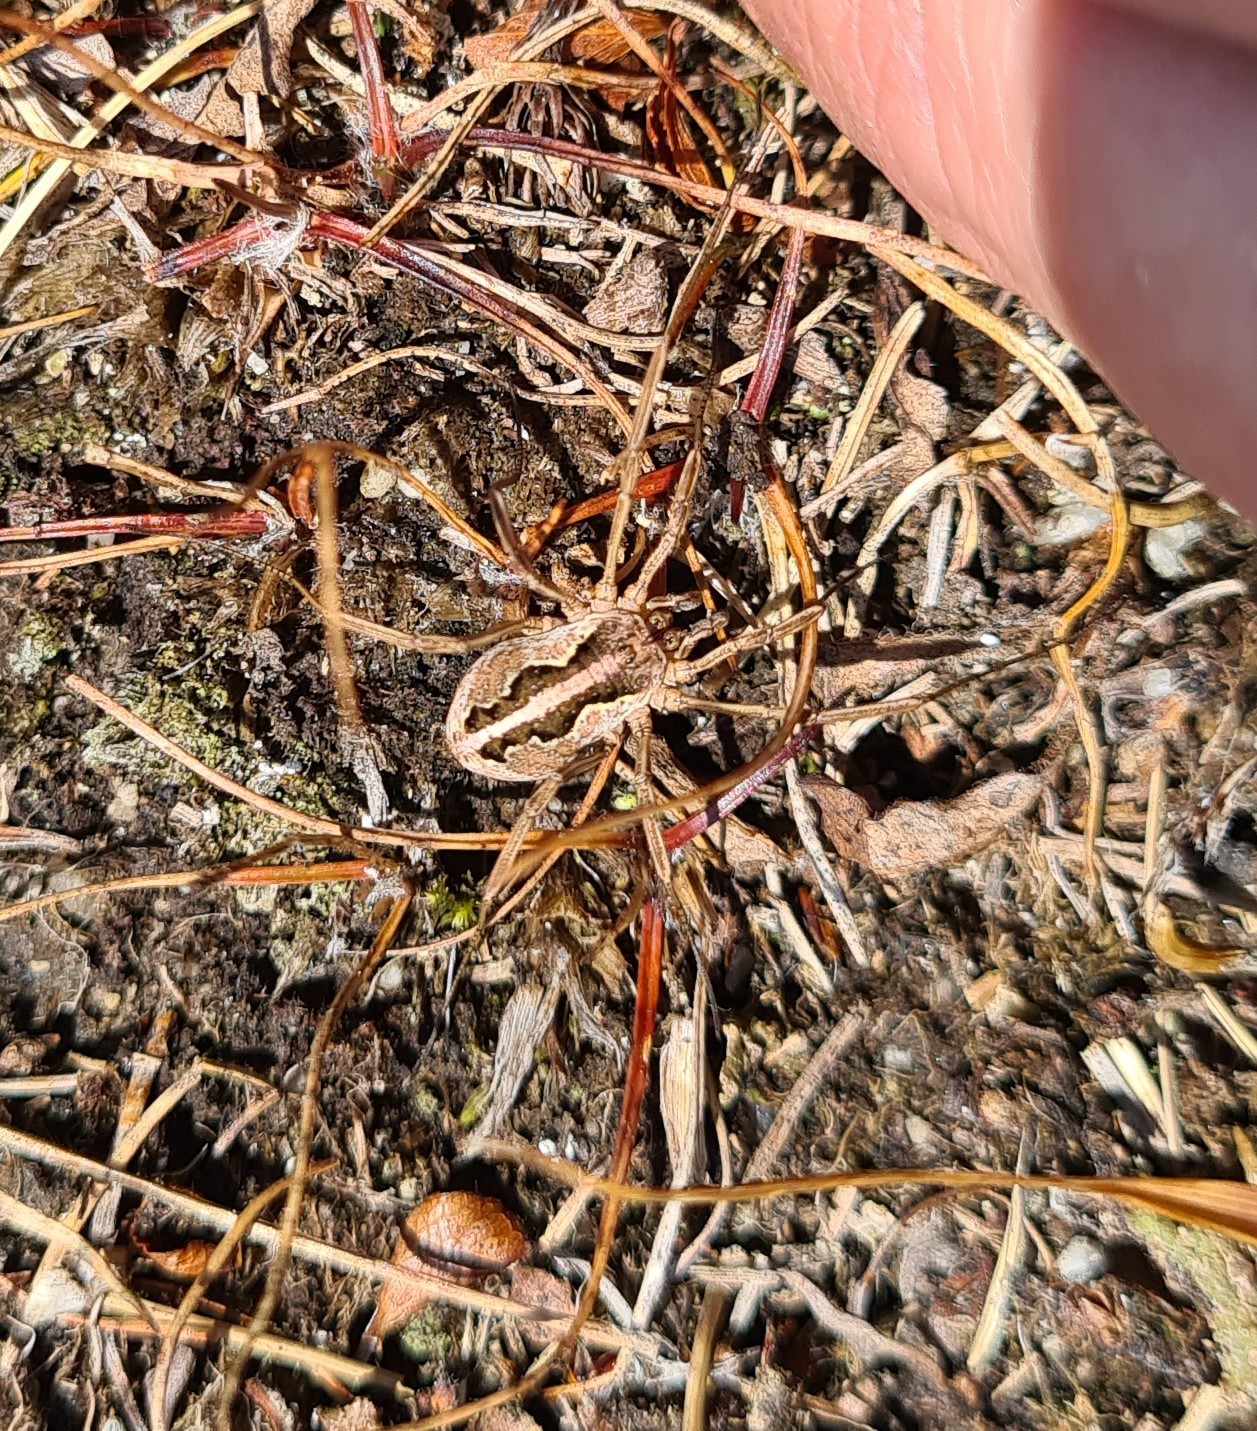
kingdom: Animalia
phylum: Arthropoda
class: Arachnida
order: Opiliones
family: Phalangiidae
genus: Mitopus
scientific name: Mitopus morio
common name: Saddleback harvestman
